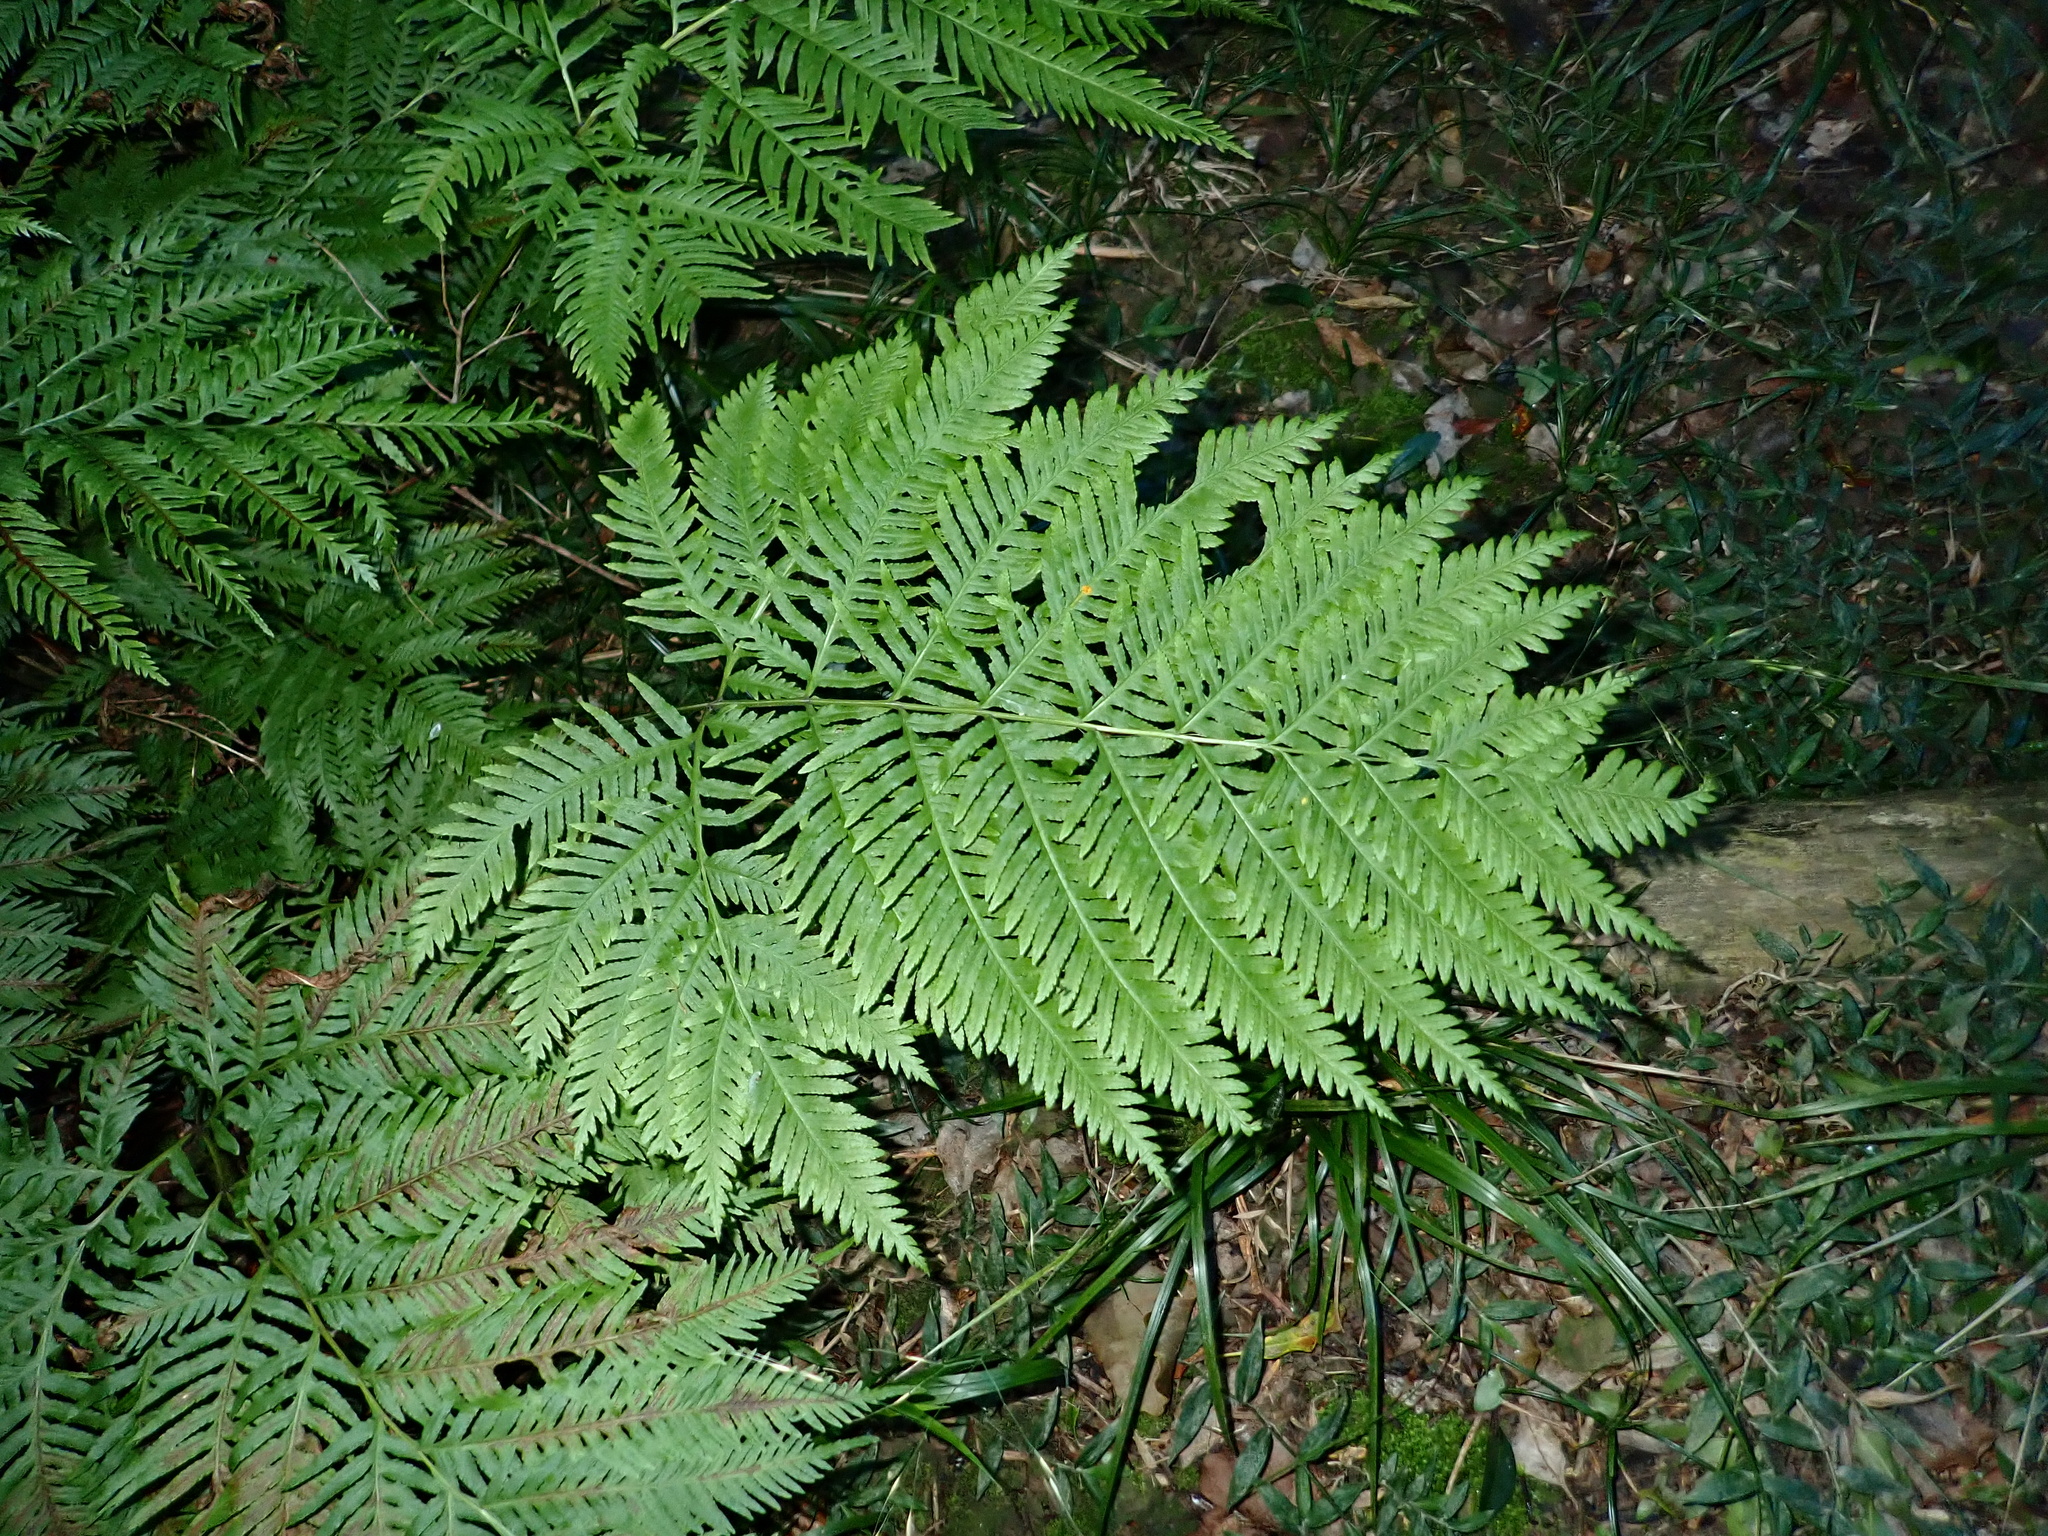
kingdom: Plantae
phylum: Tracheophyta
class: Polypodiopsida
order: Polypodiales
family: Pteridaceae
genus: Pteris
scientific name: Pteris buchananii
